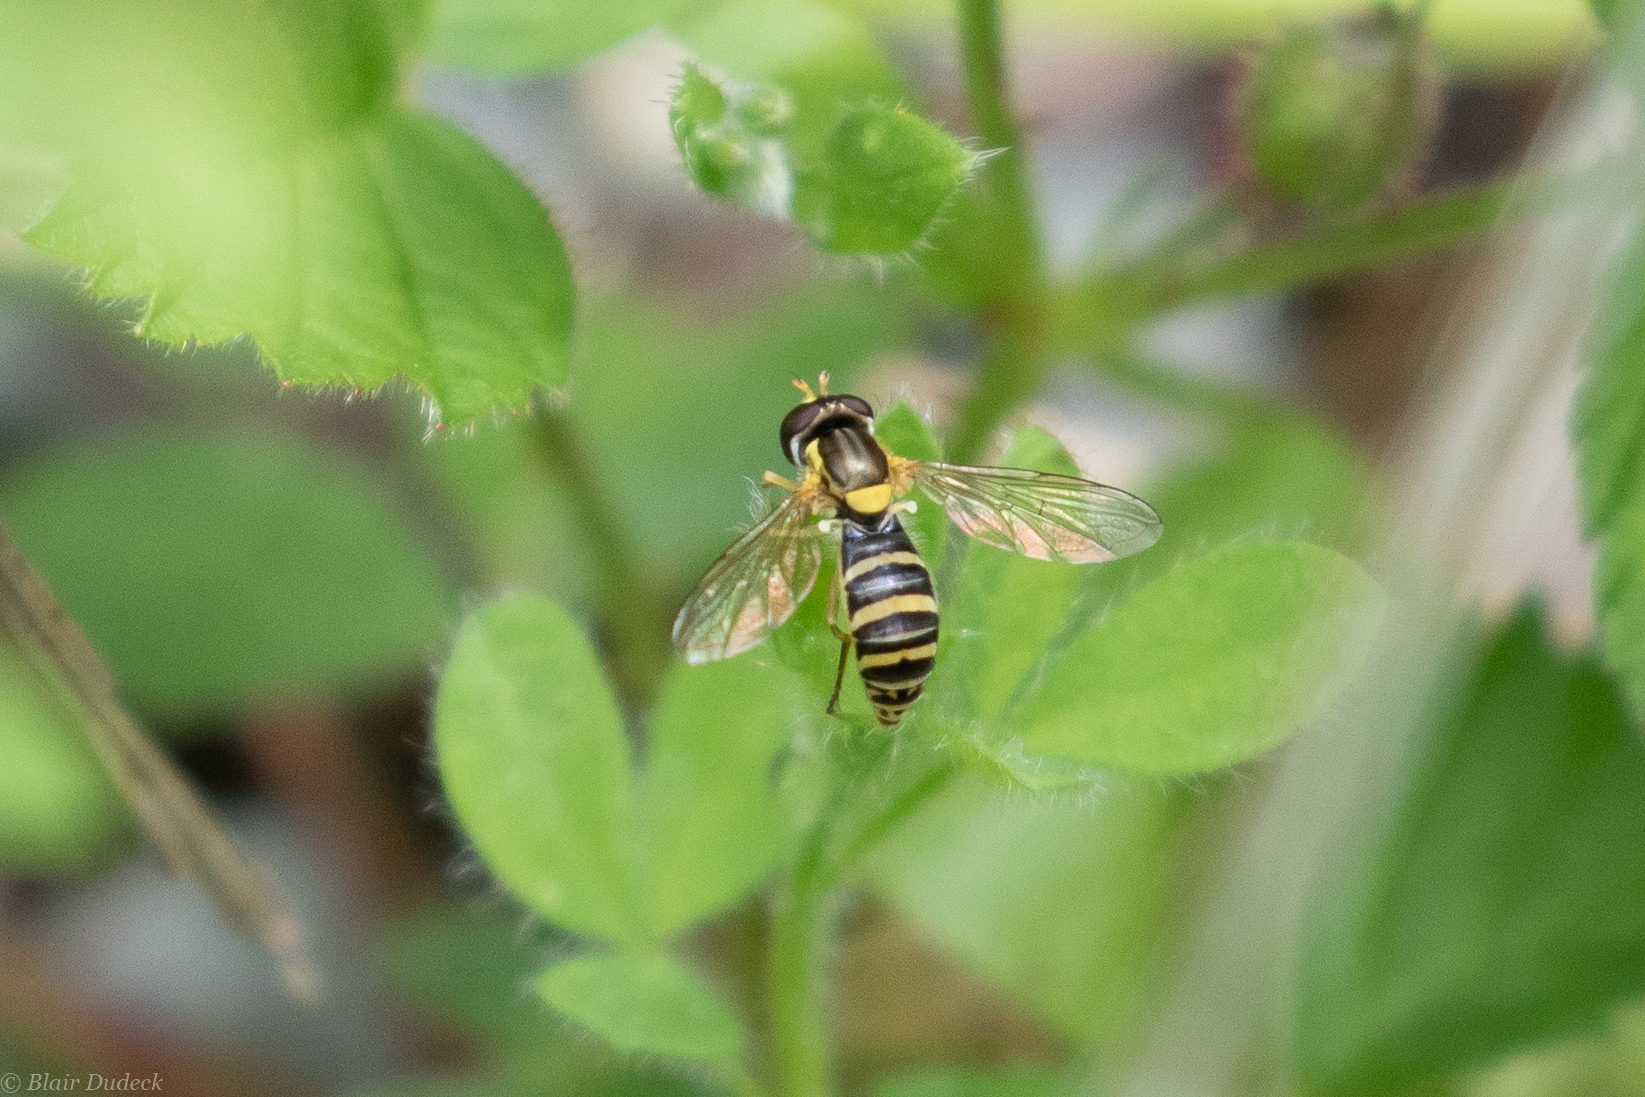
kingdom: Animalia
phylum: Arthropoda
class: Insecta
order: Diptera
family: Syrphidae
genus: Sphaerophoria
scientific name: Sphaerophoria
